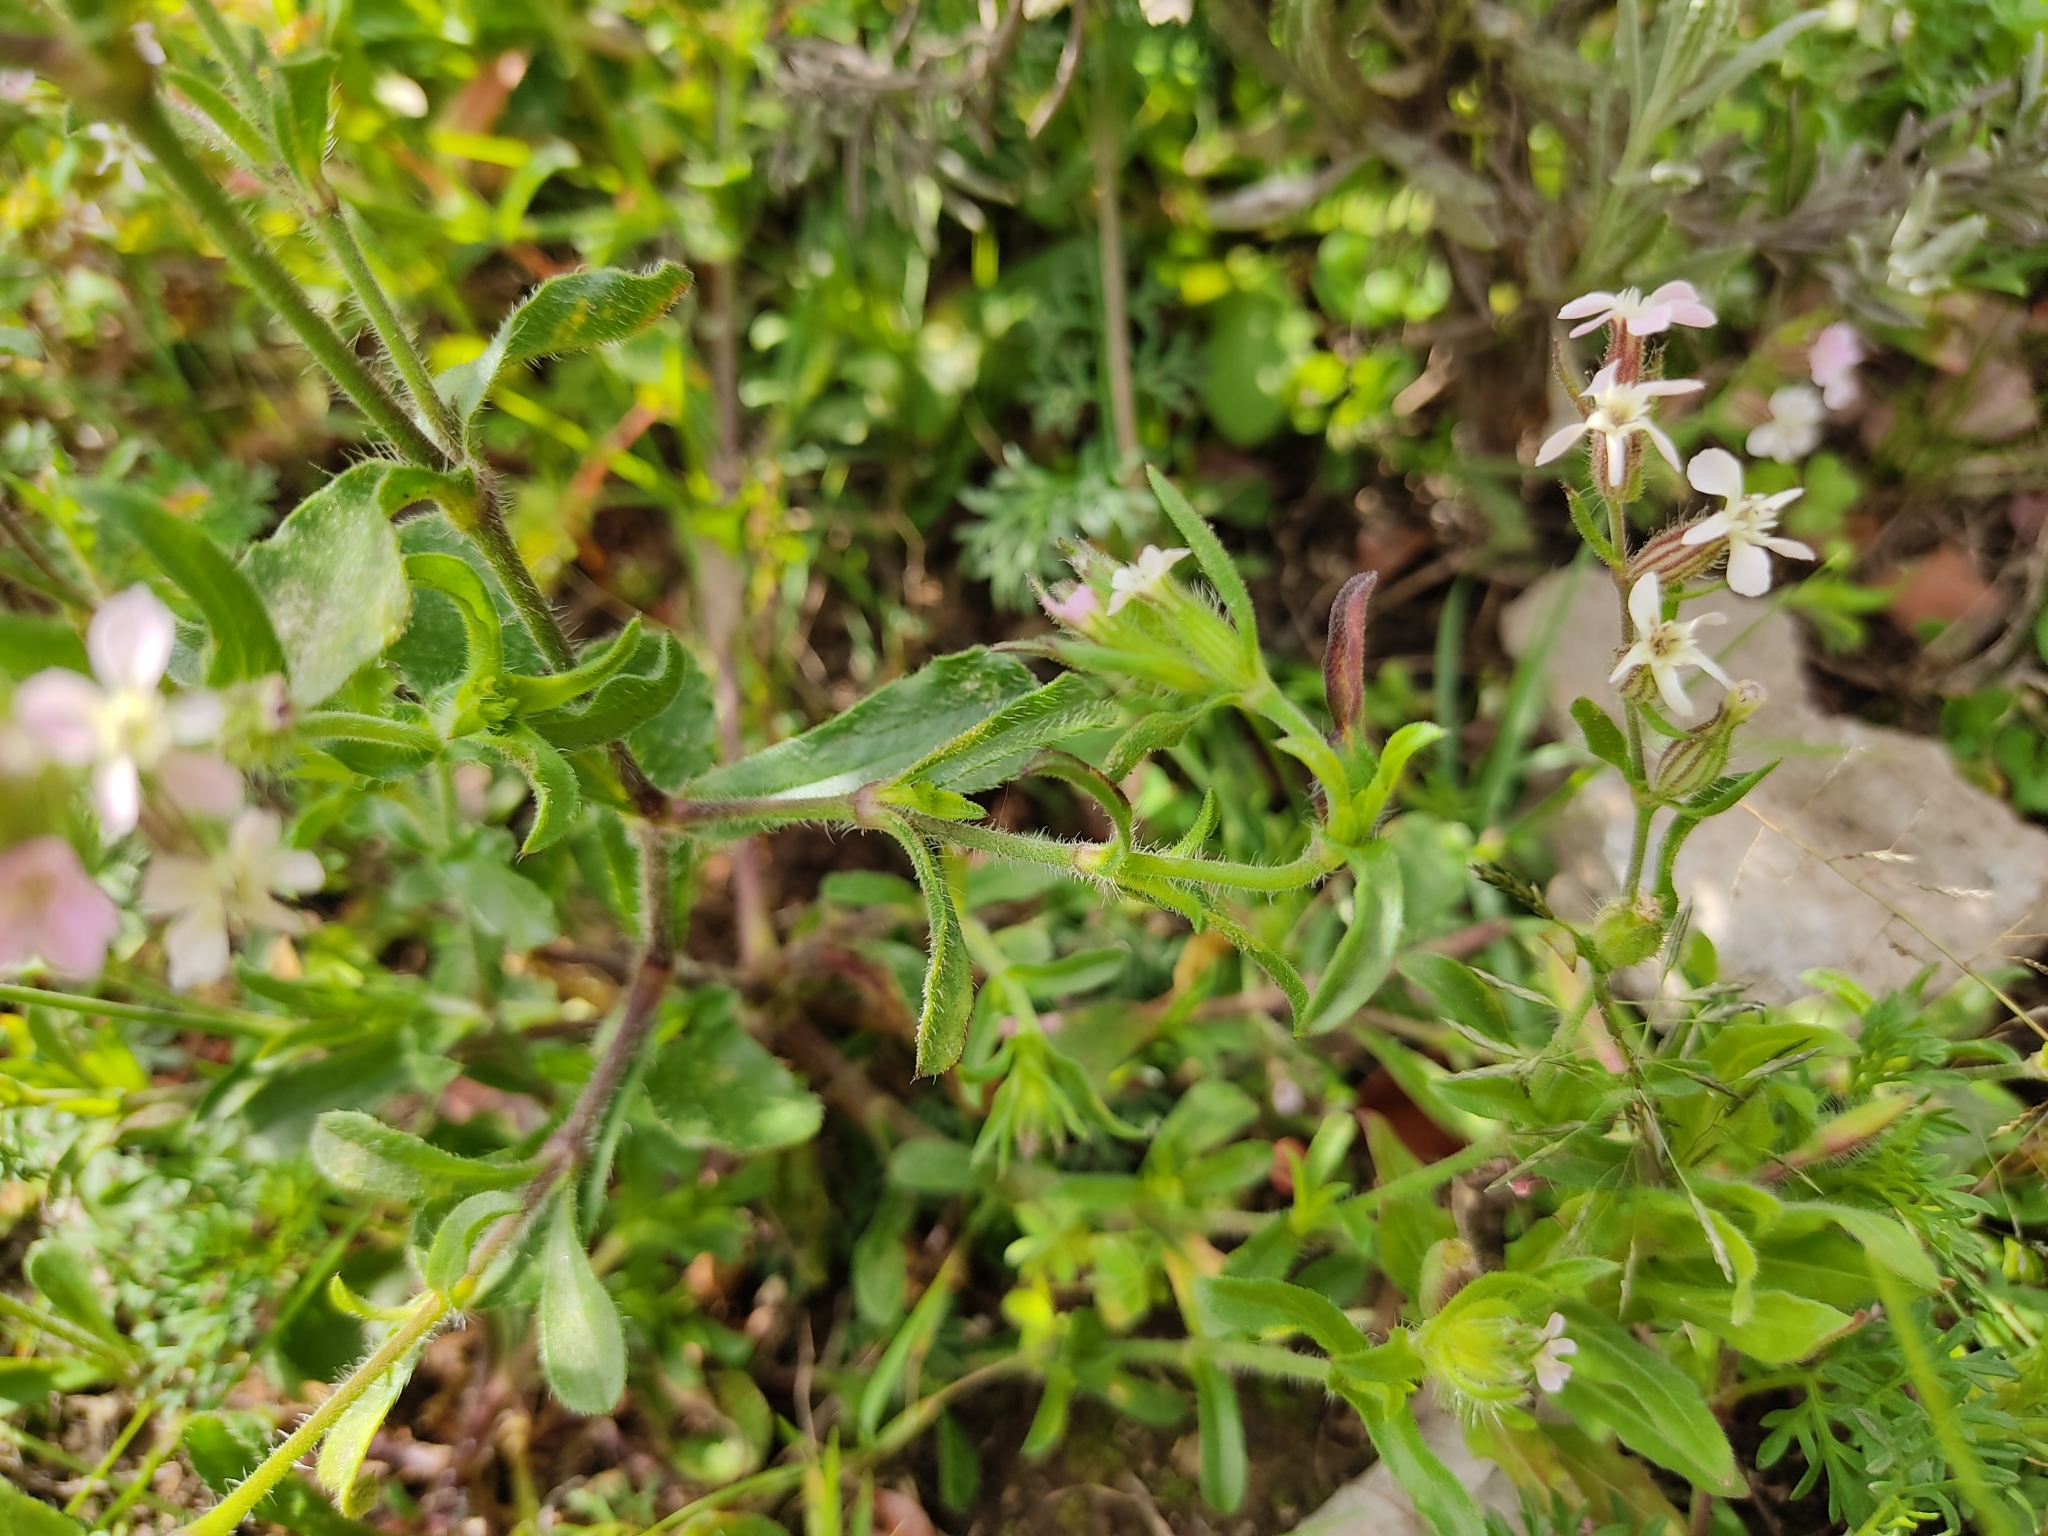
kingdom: Plantae
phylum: Tracheophyta
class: Magnoliopsida
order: Caryophyllales
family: Caryophyllaceae
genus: Silene
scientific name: Silene gallica
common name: Small-flowered catchfly
